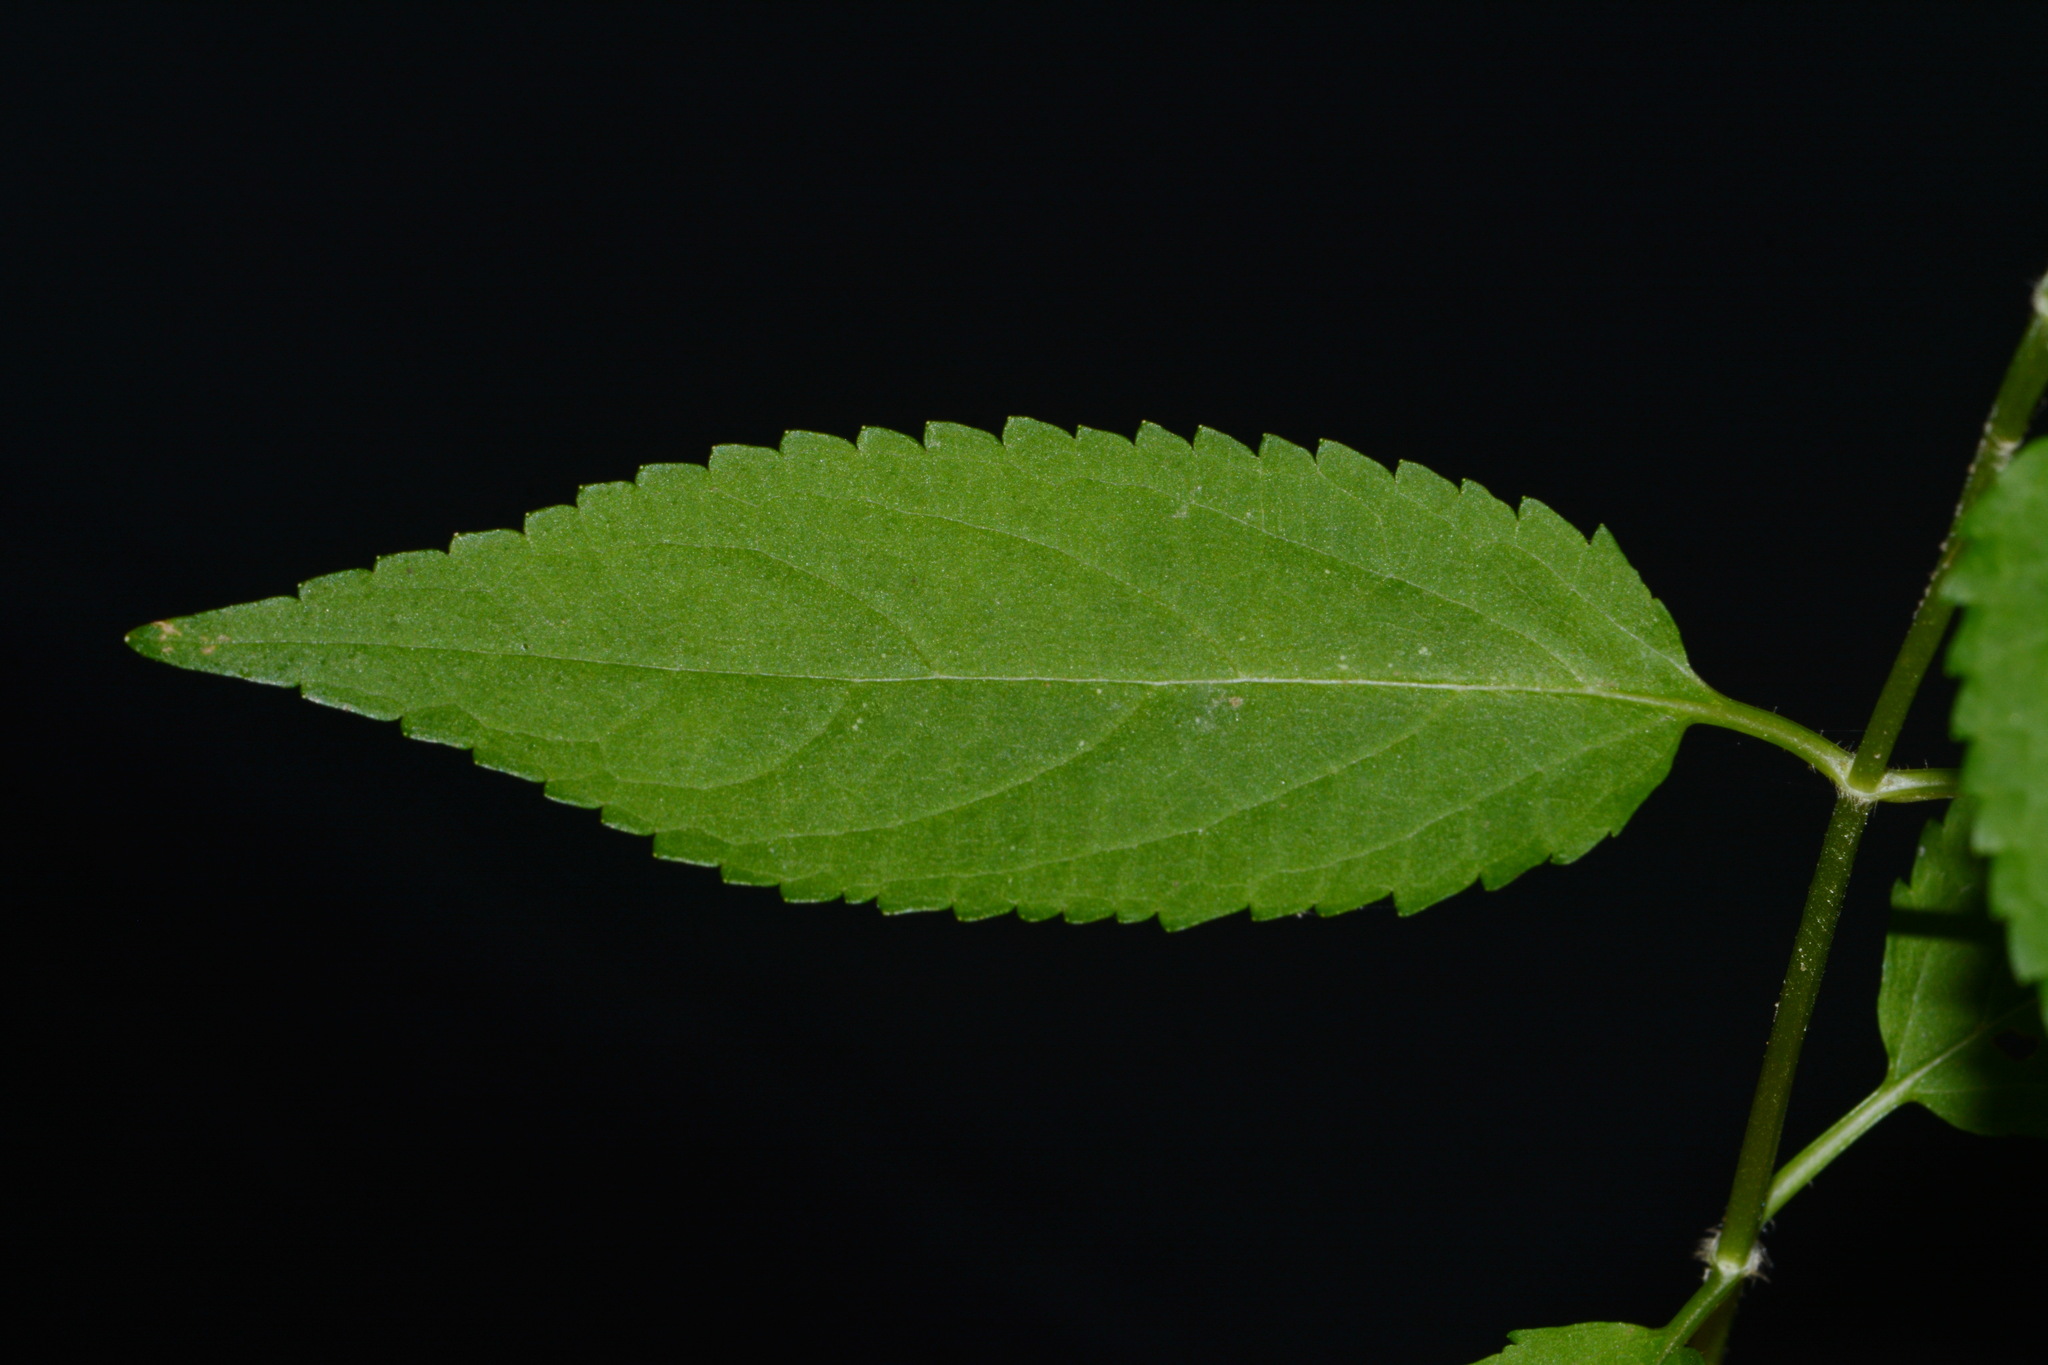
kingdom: Plantae
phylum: Tracheophyta
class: Magnoliopsida
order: Lamiales
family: Lamiaceae
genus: Stachys
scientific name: Stachys tenuifolia
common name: Smooth hedge-nettle
